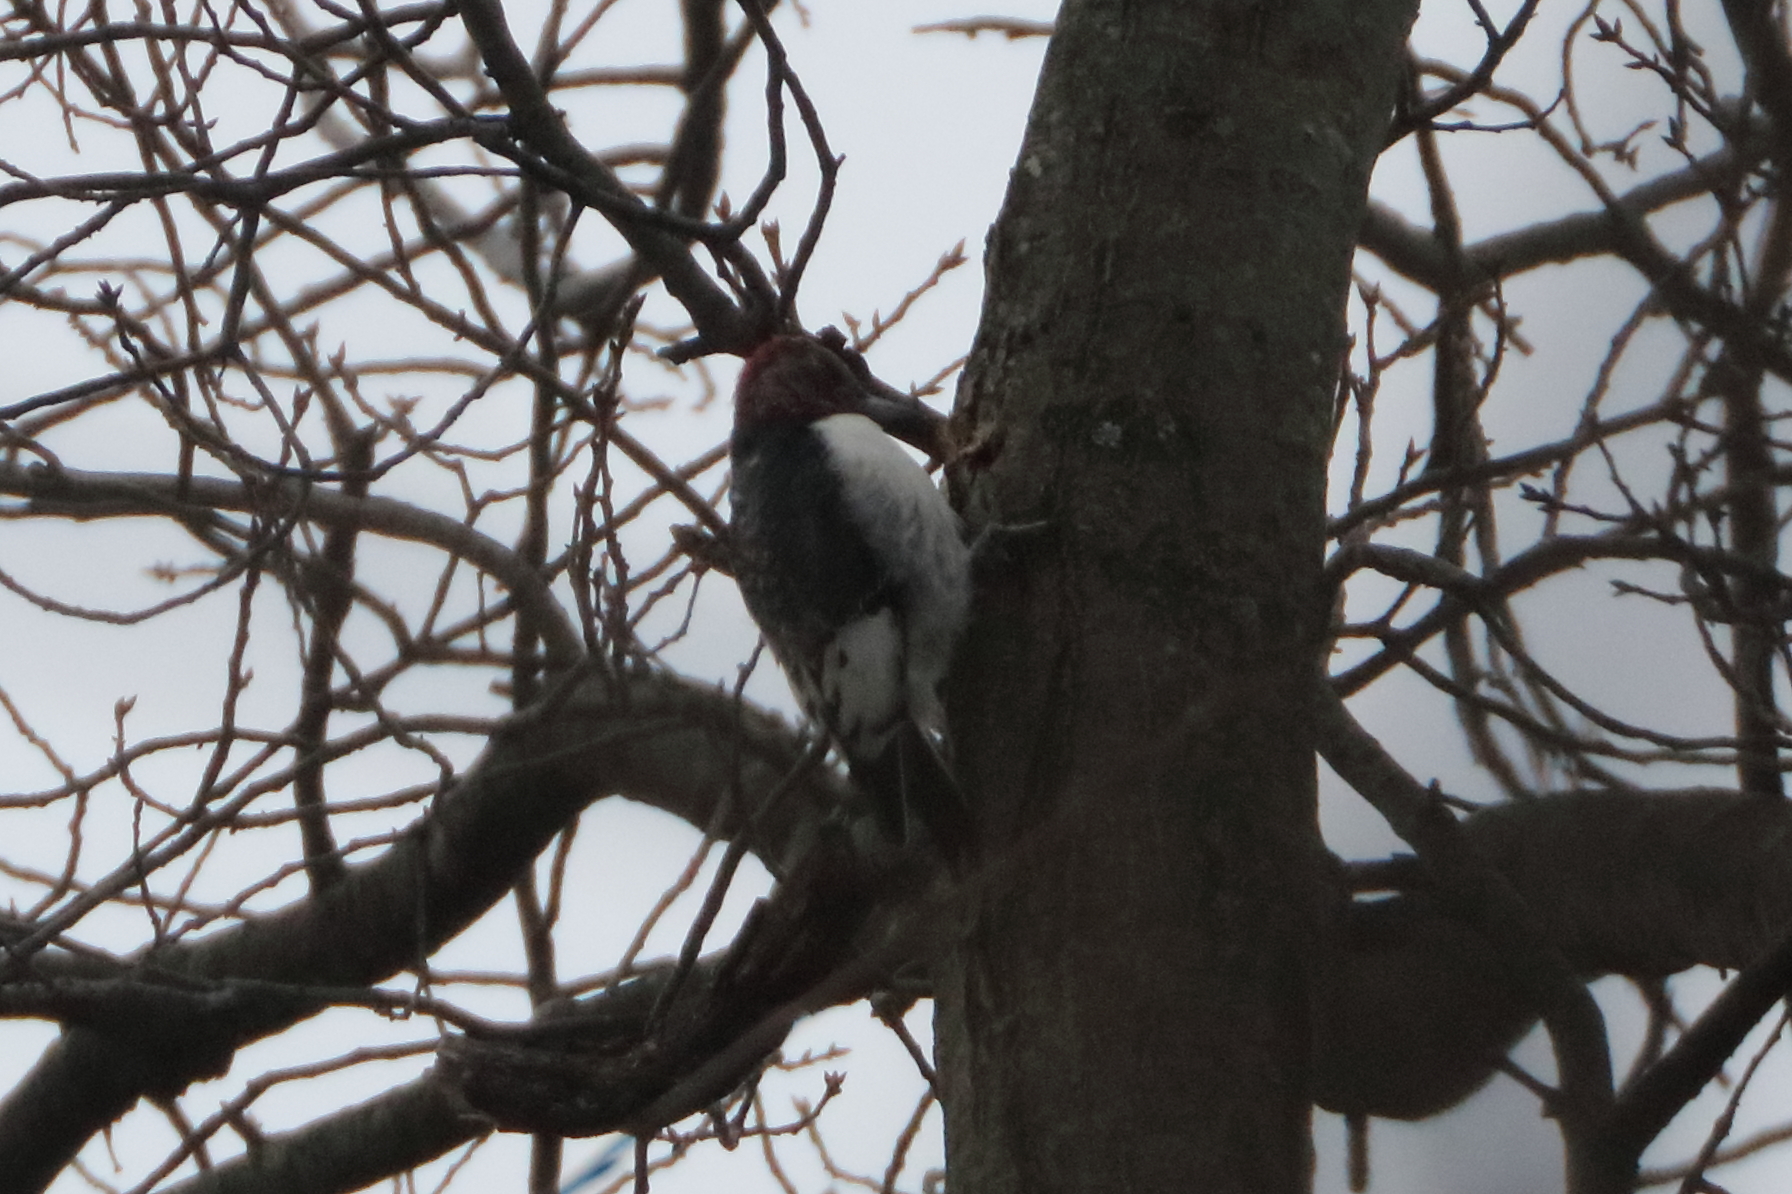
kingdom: Animalia
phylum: Chordata
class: Aves
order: Piciformes
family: Picidae
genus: Melanerpes
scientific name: Melanerpes erythrocephalus
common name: Red-headed woodpecker
